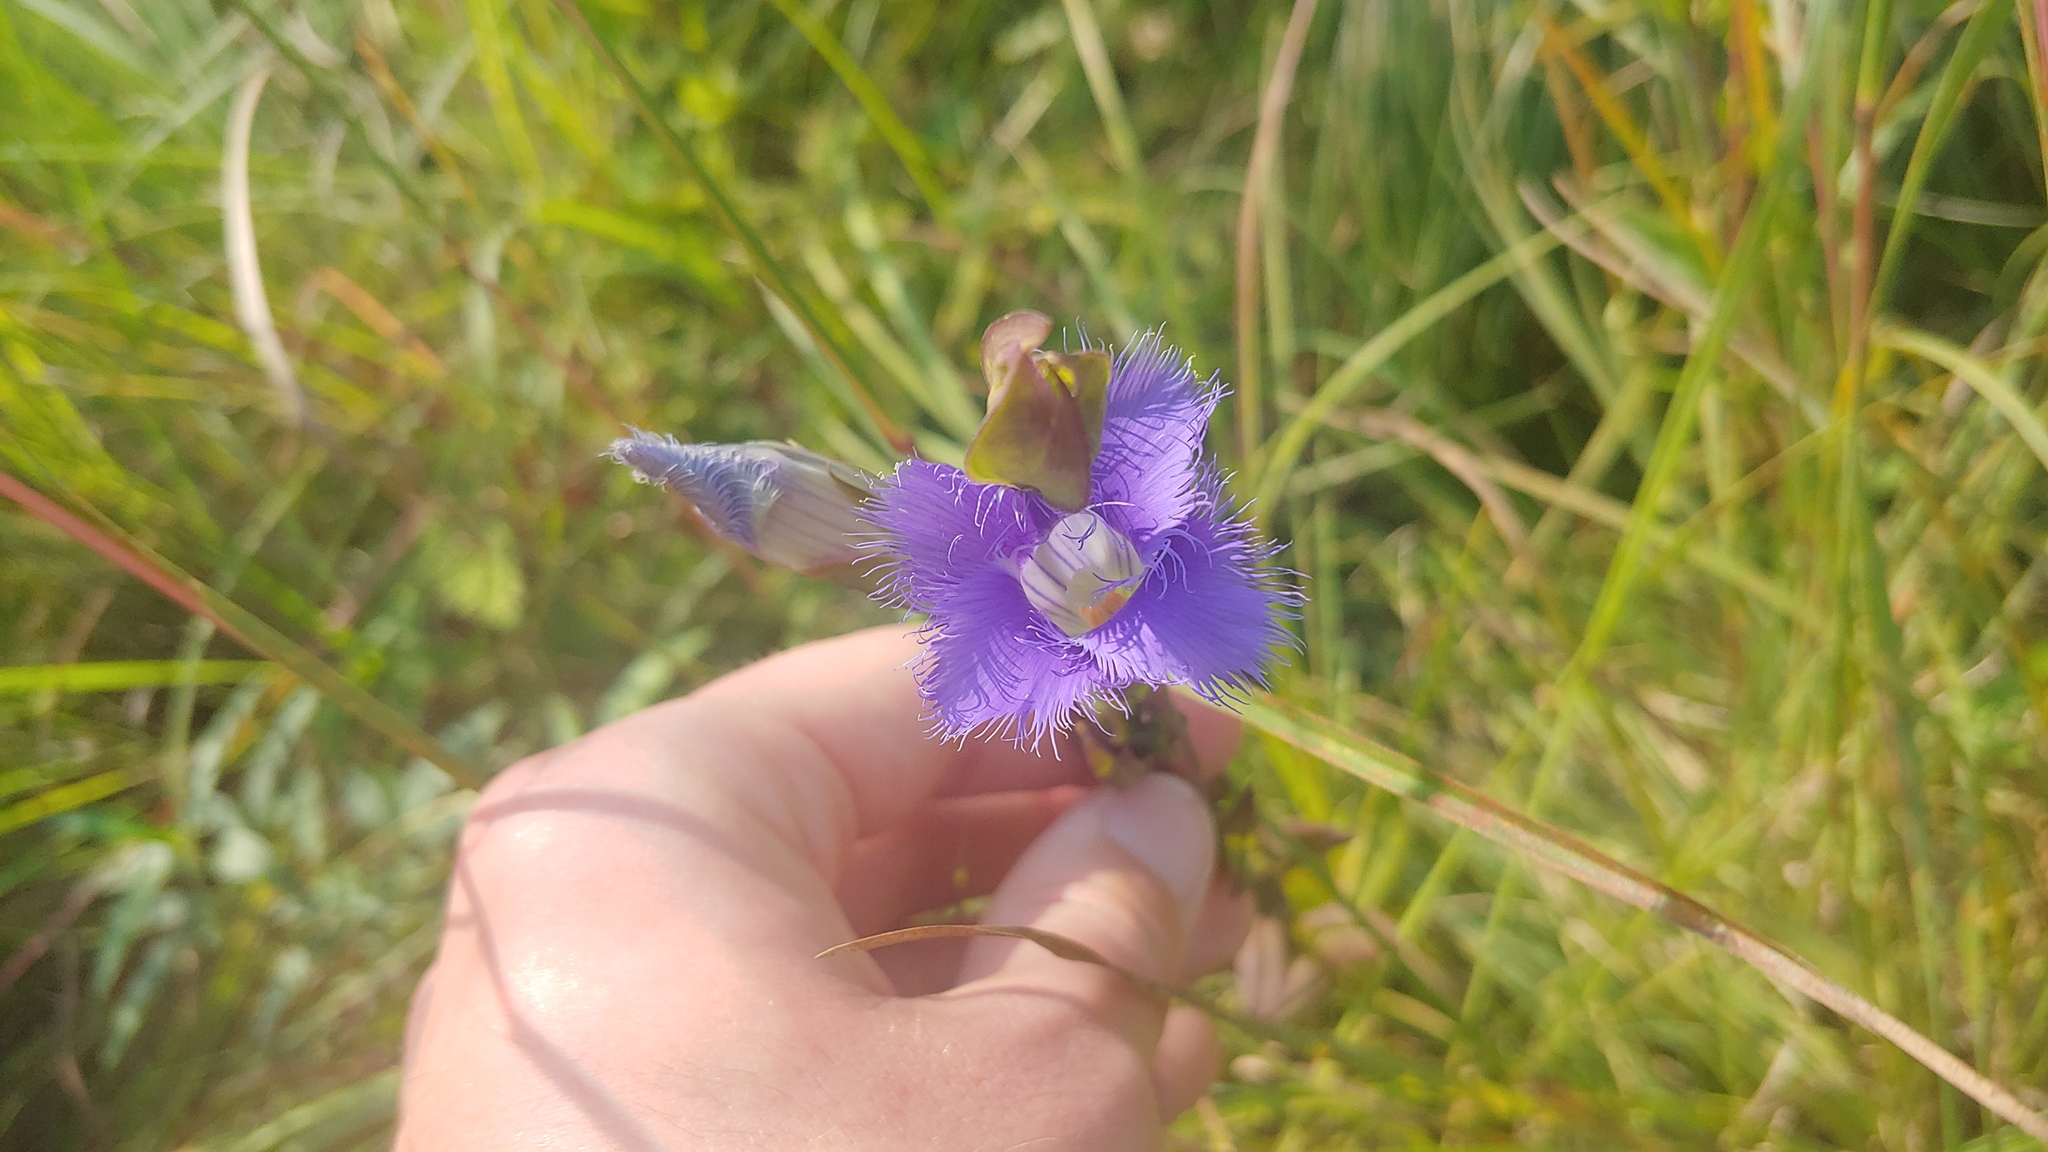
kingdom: Plantae
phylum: Tracheophyta
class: Magnoliopsida
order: Gentianales
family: Gentianaceae
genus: Gentianopsis
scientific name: Gentianopsis crinita
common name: Fringed-gentian
